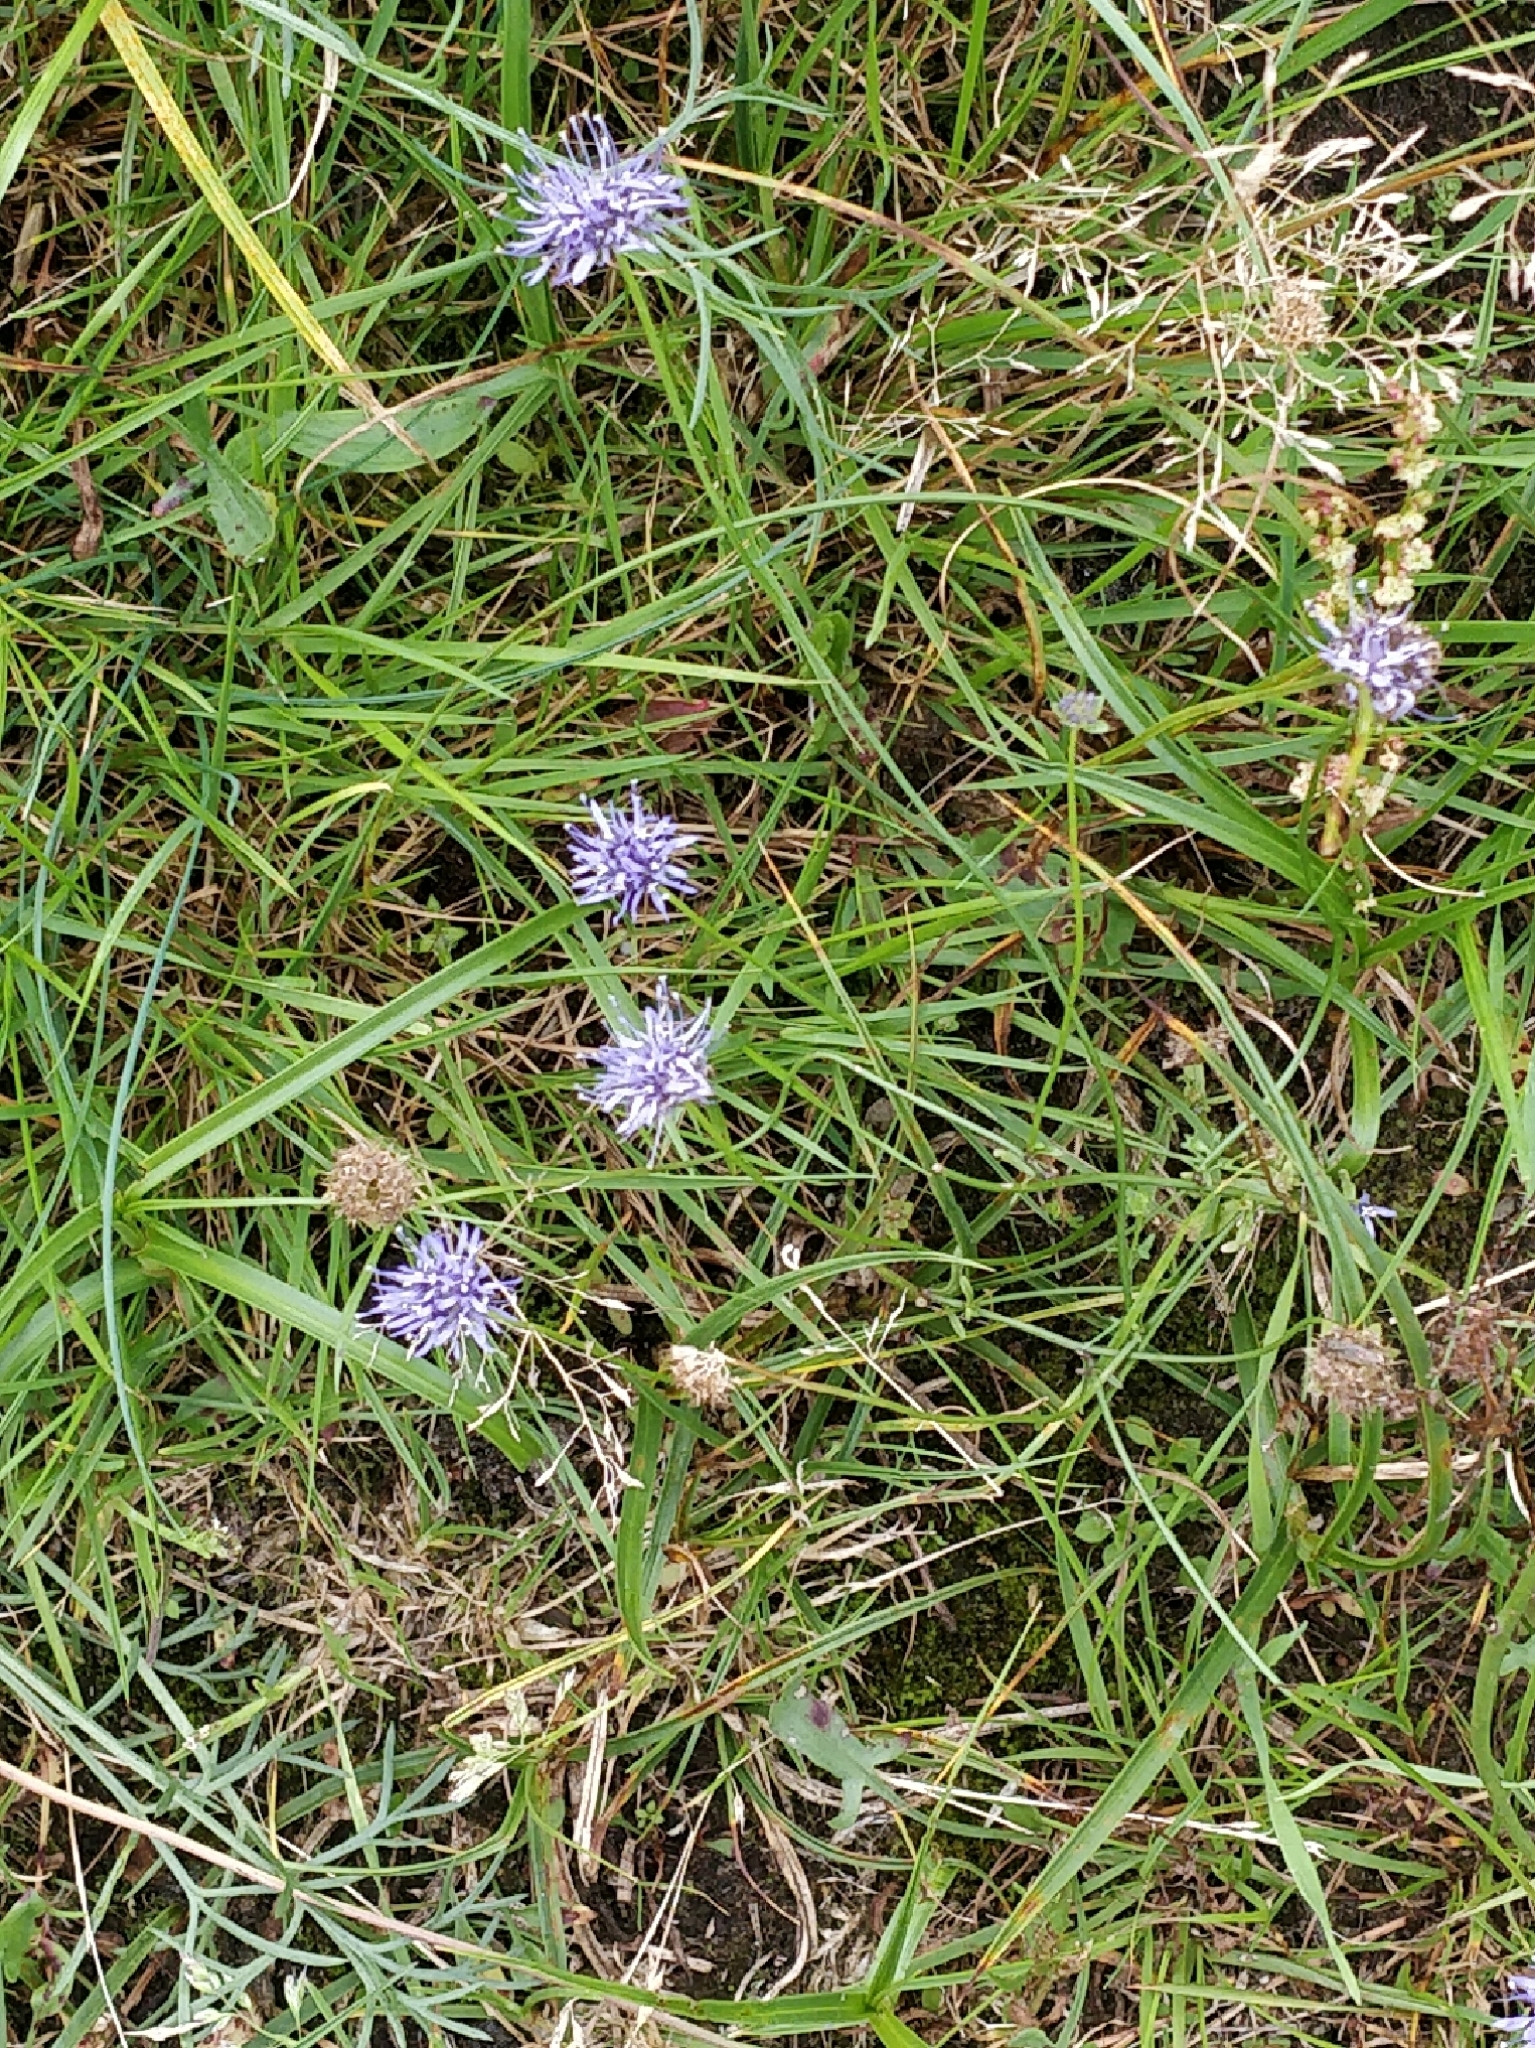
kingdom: Plantae
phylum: Tracheophyta
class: Magnoliopsida
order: Asterales
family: Campanulaceae
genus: Jasione
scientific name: Jasione montana
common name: Sheep's-bit
